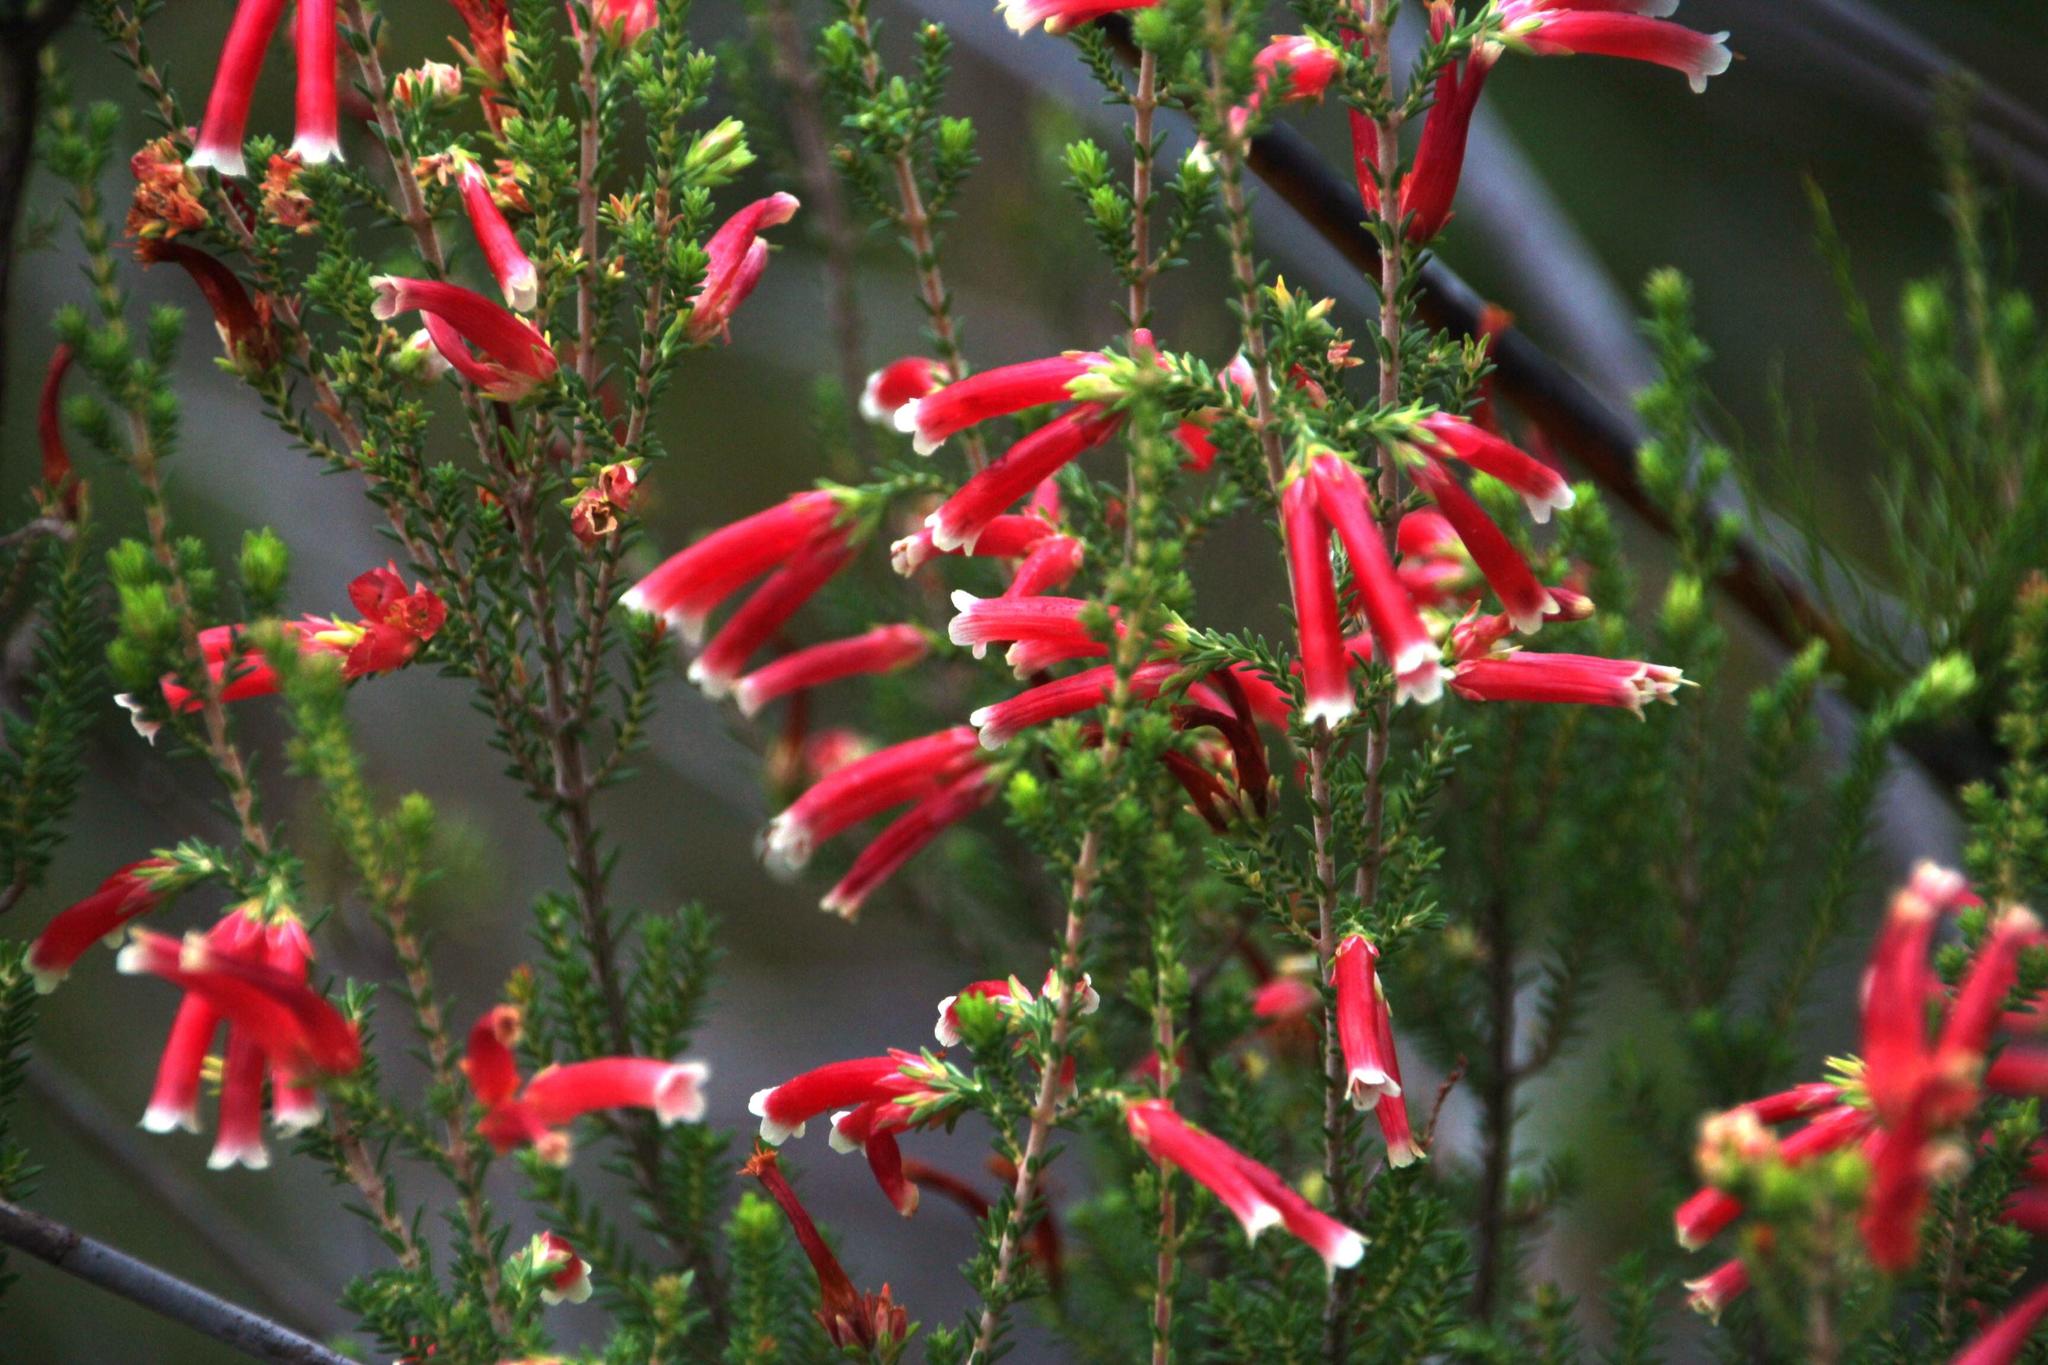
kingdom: Plantae
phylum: Tracheophyta
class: Magnoliopsida
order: Ericales
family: Ericaceae
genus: Erica
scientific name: Erica versicolor
